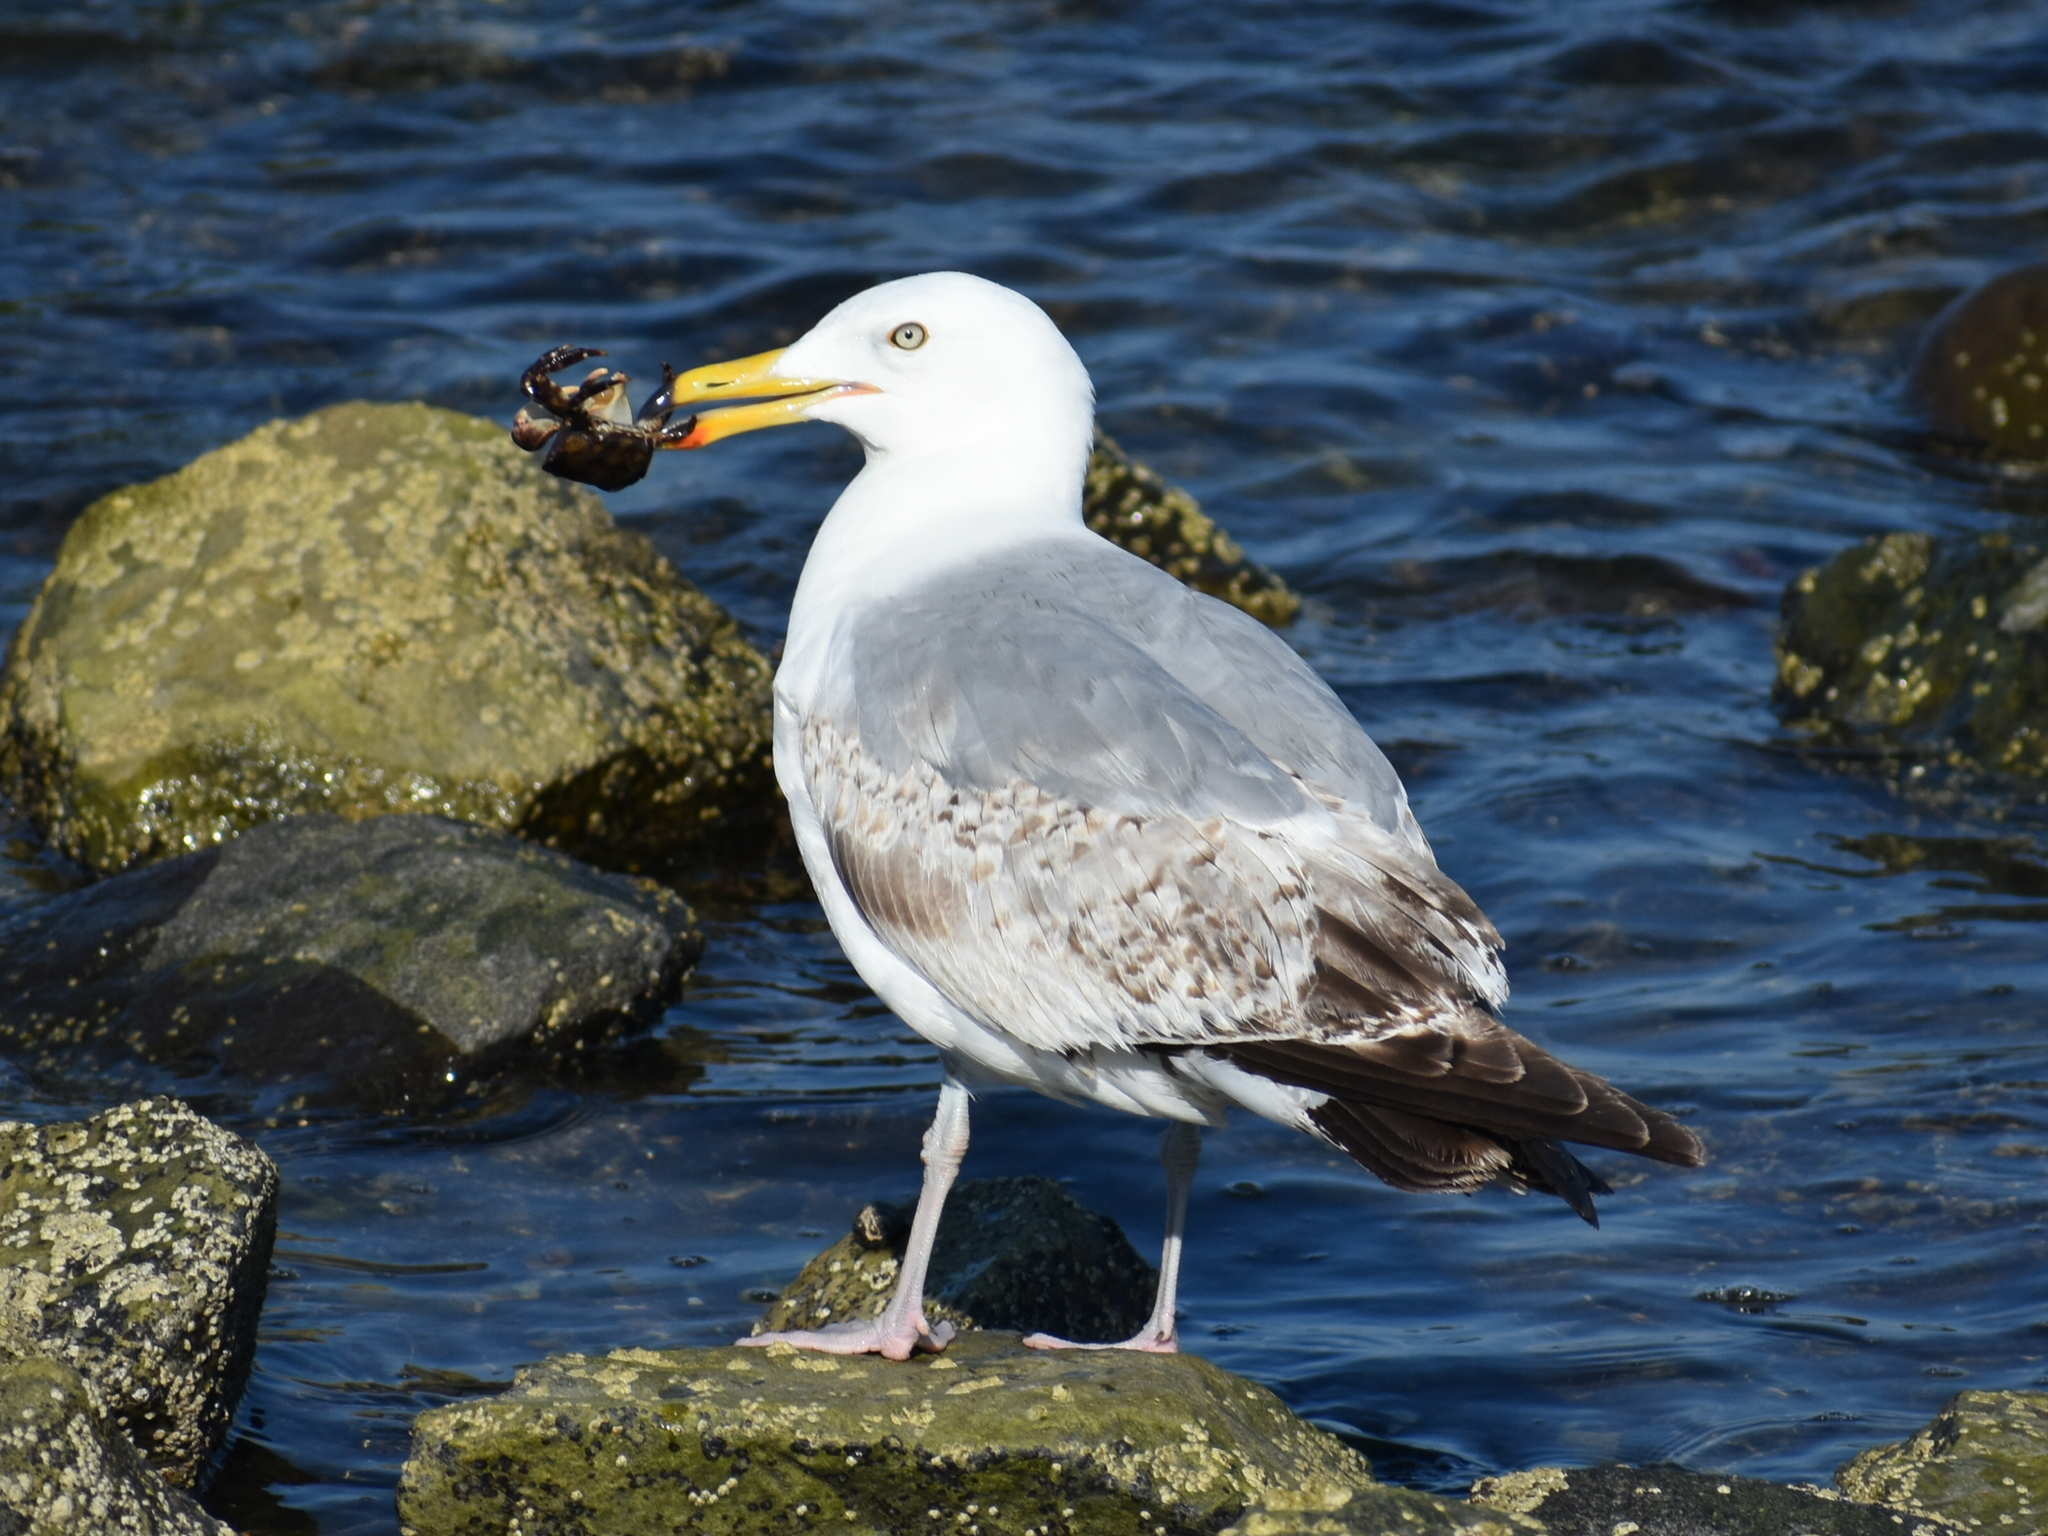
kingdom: Animalia
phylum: Chordata
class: Aves
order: Charadriiformes
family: Laridae
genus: Larus
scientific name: Larus argentatus
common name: Herring gull
